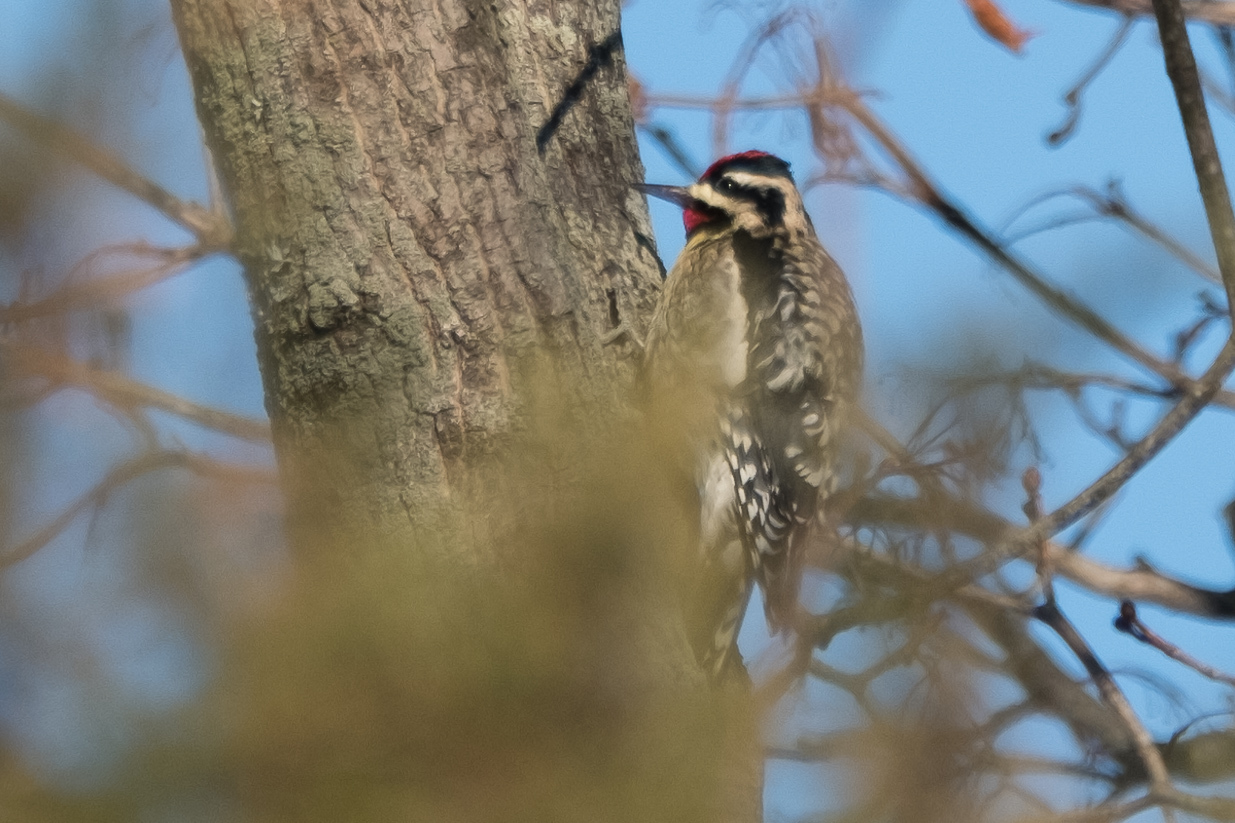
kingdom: Animalia
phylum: Chordata
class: Aves
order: Piciformes
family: Picidae
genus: Sphyrapicus
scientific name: Sphyrapicus varius
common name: Yellow-bellied sapsucker
